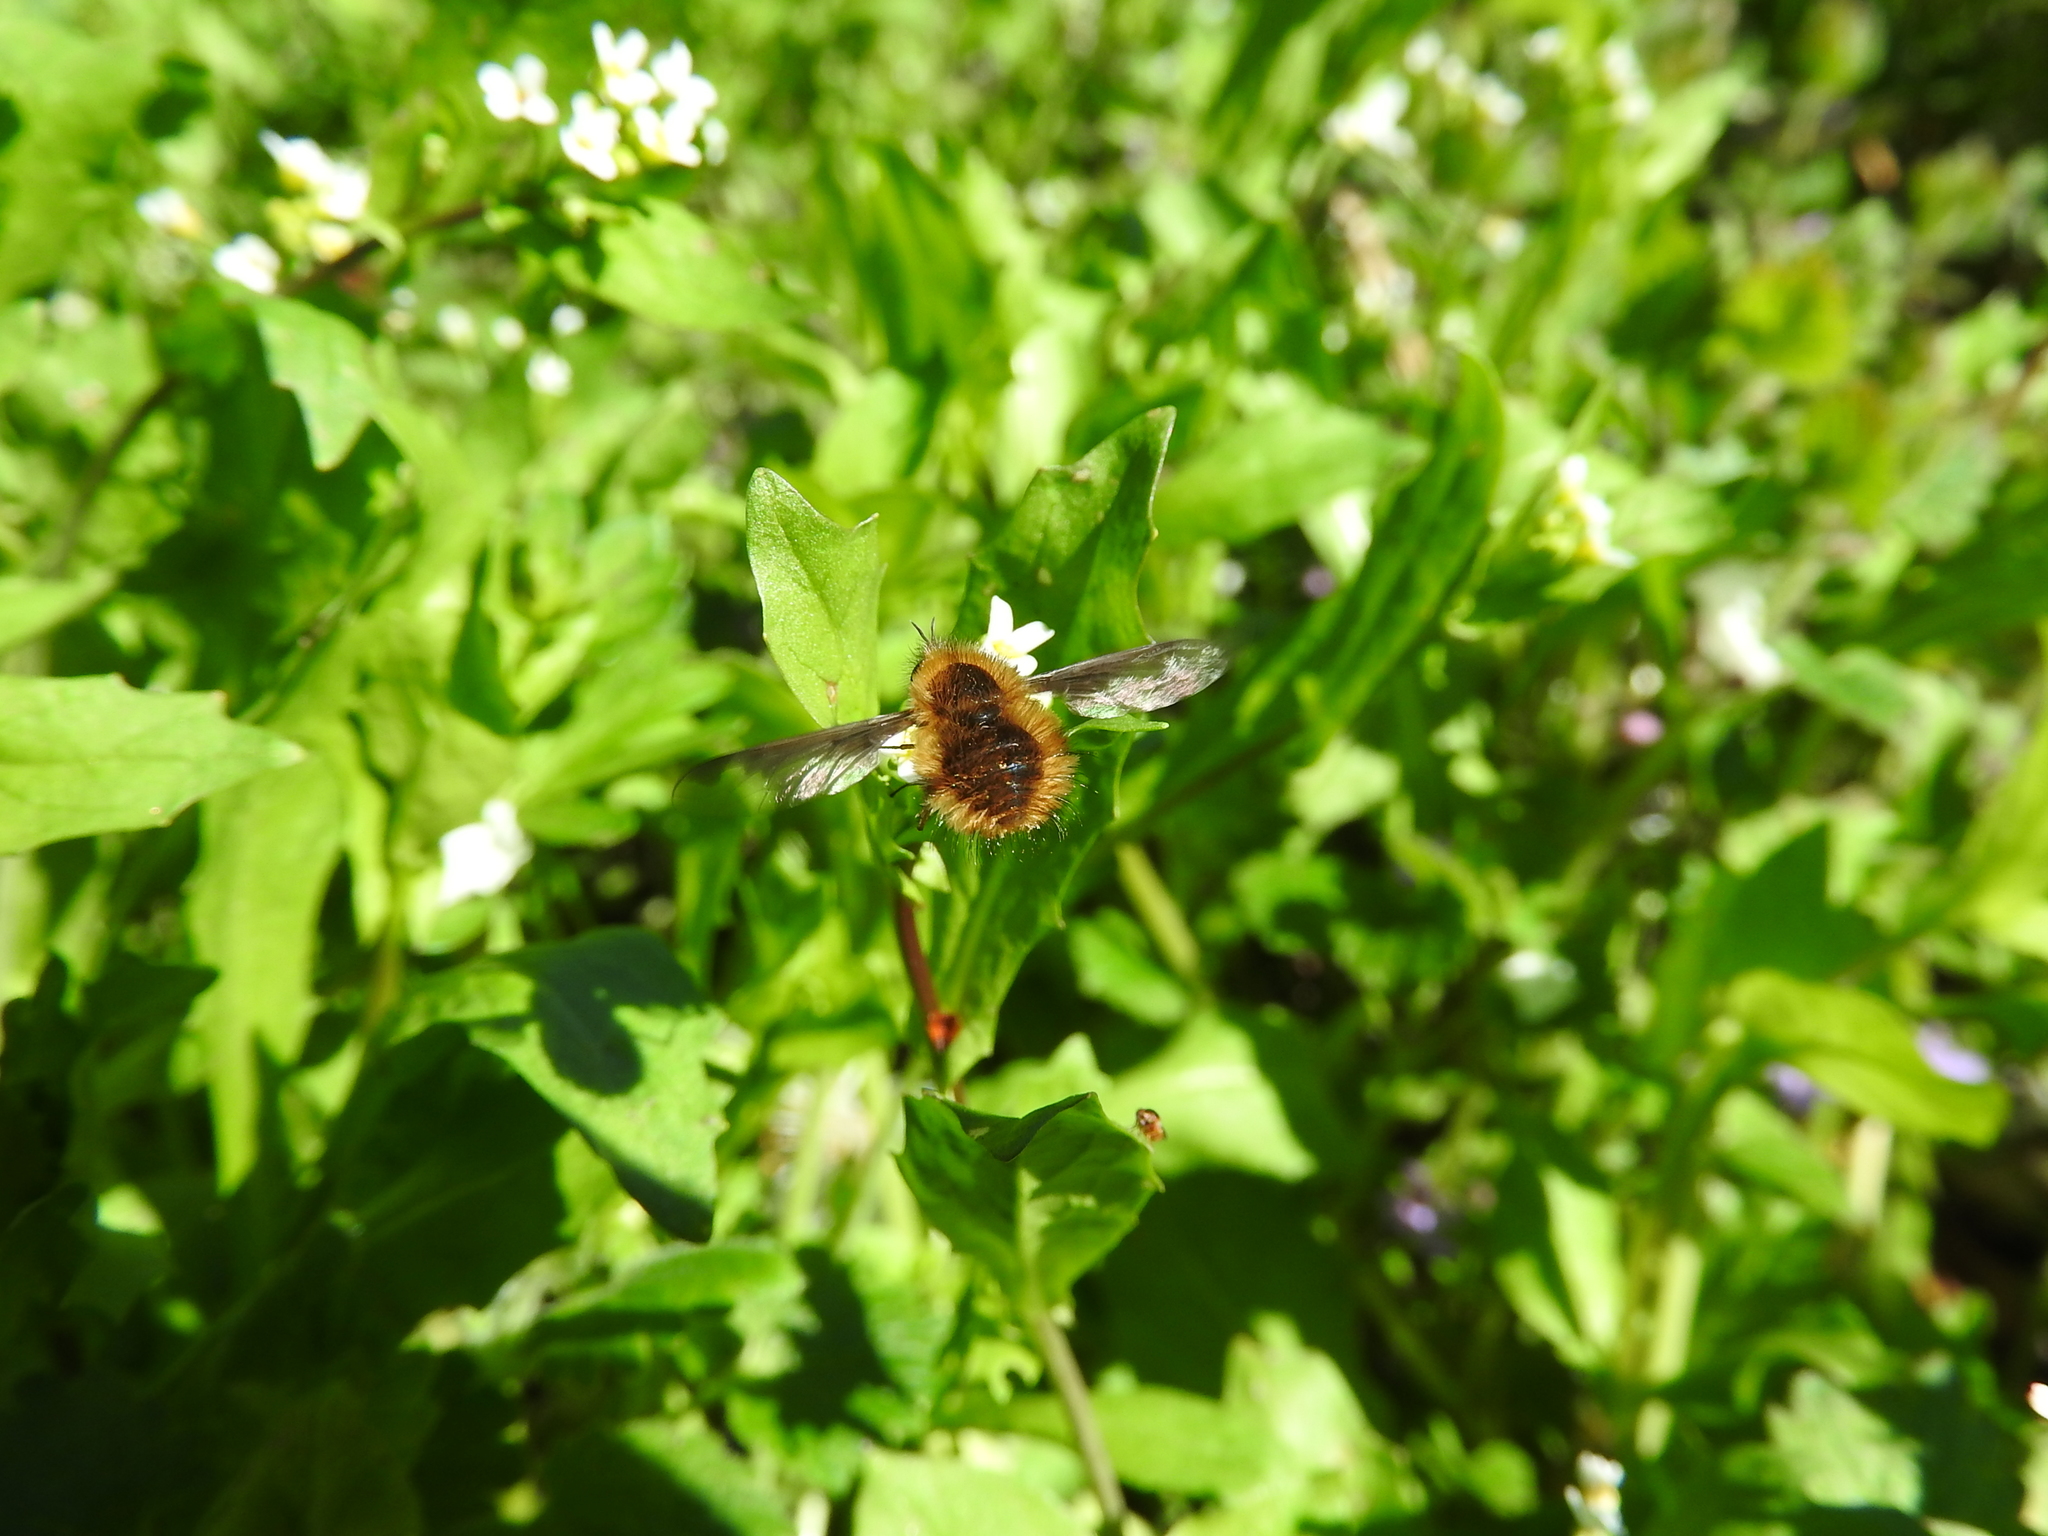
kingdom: Animalia
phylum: Arthropoda
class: Insecta
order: Diptera
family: Bombyliidae
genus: Bombylius
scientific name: Bombylius major
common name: Bee fly
